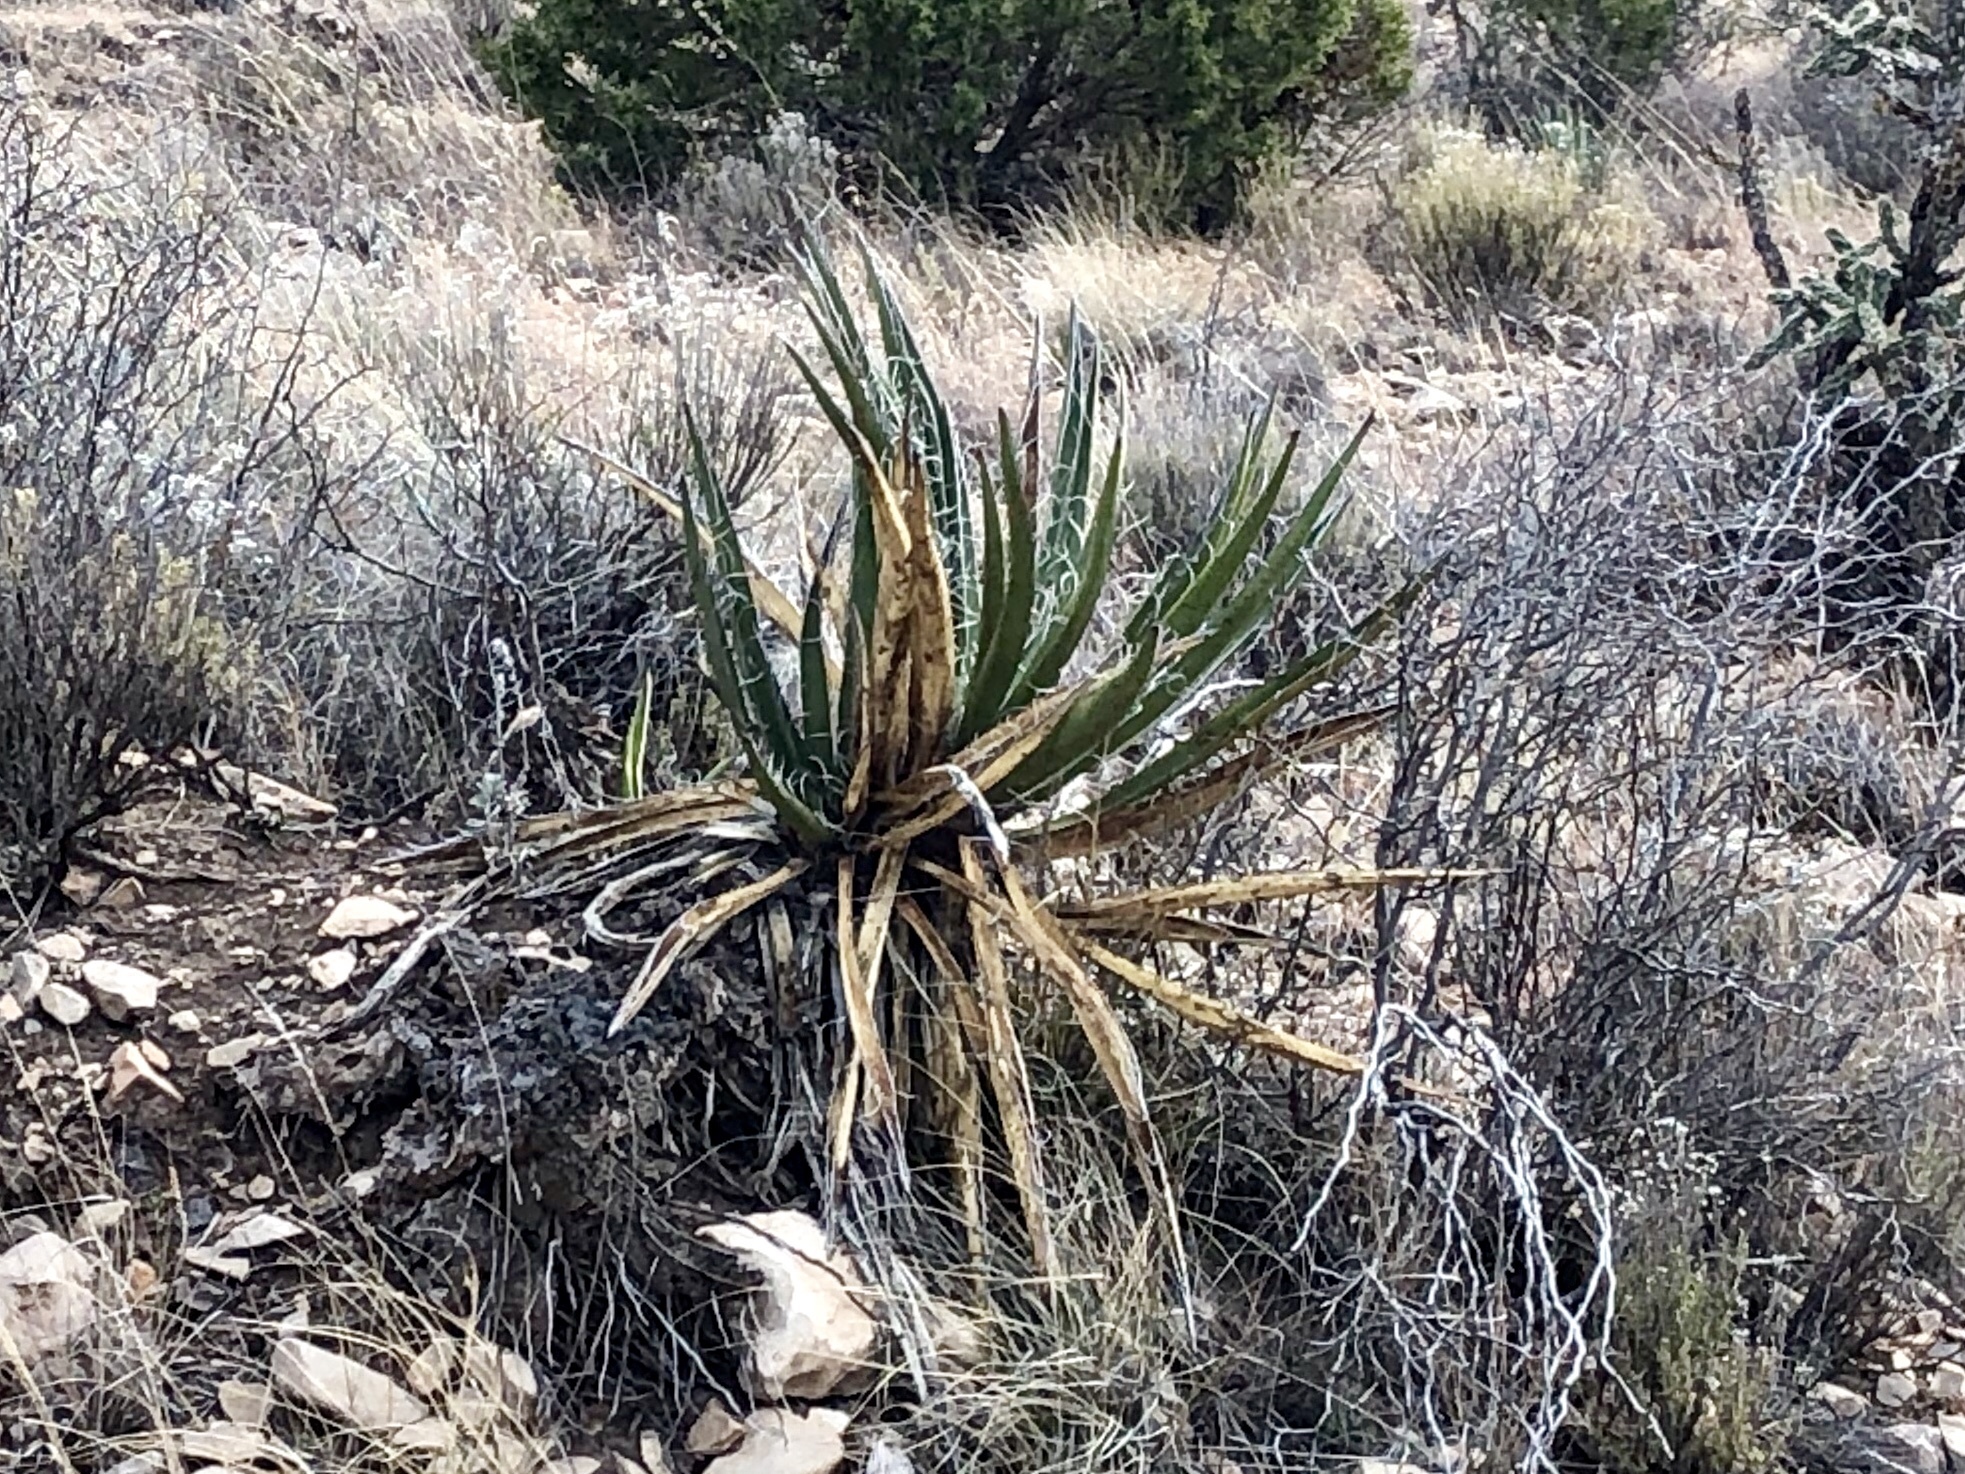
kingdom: Plantae
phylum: Tracheophyta
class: Liliopsida
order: Asparagales
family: Asparagaceae
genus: Yucca
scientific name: Yucca baccata
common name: Banana yucca
